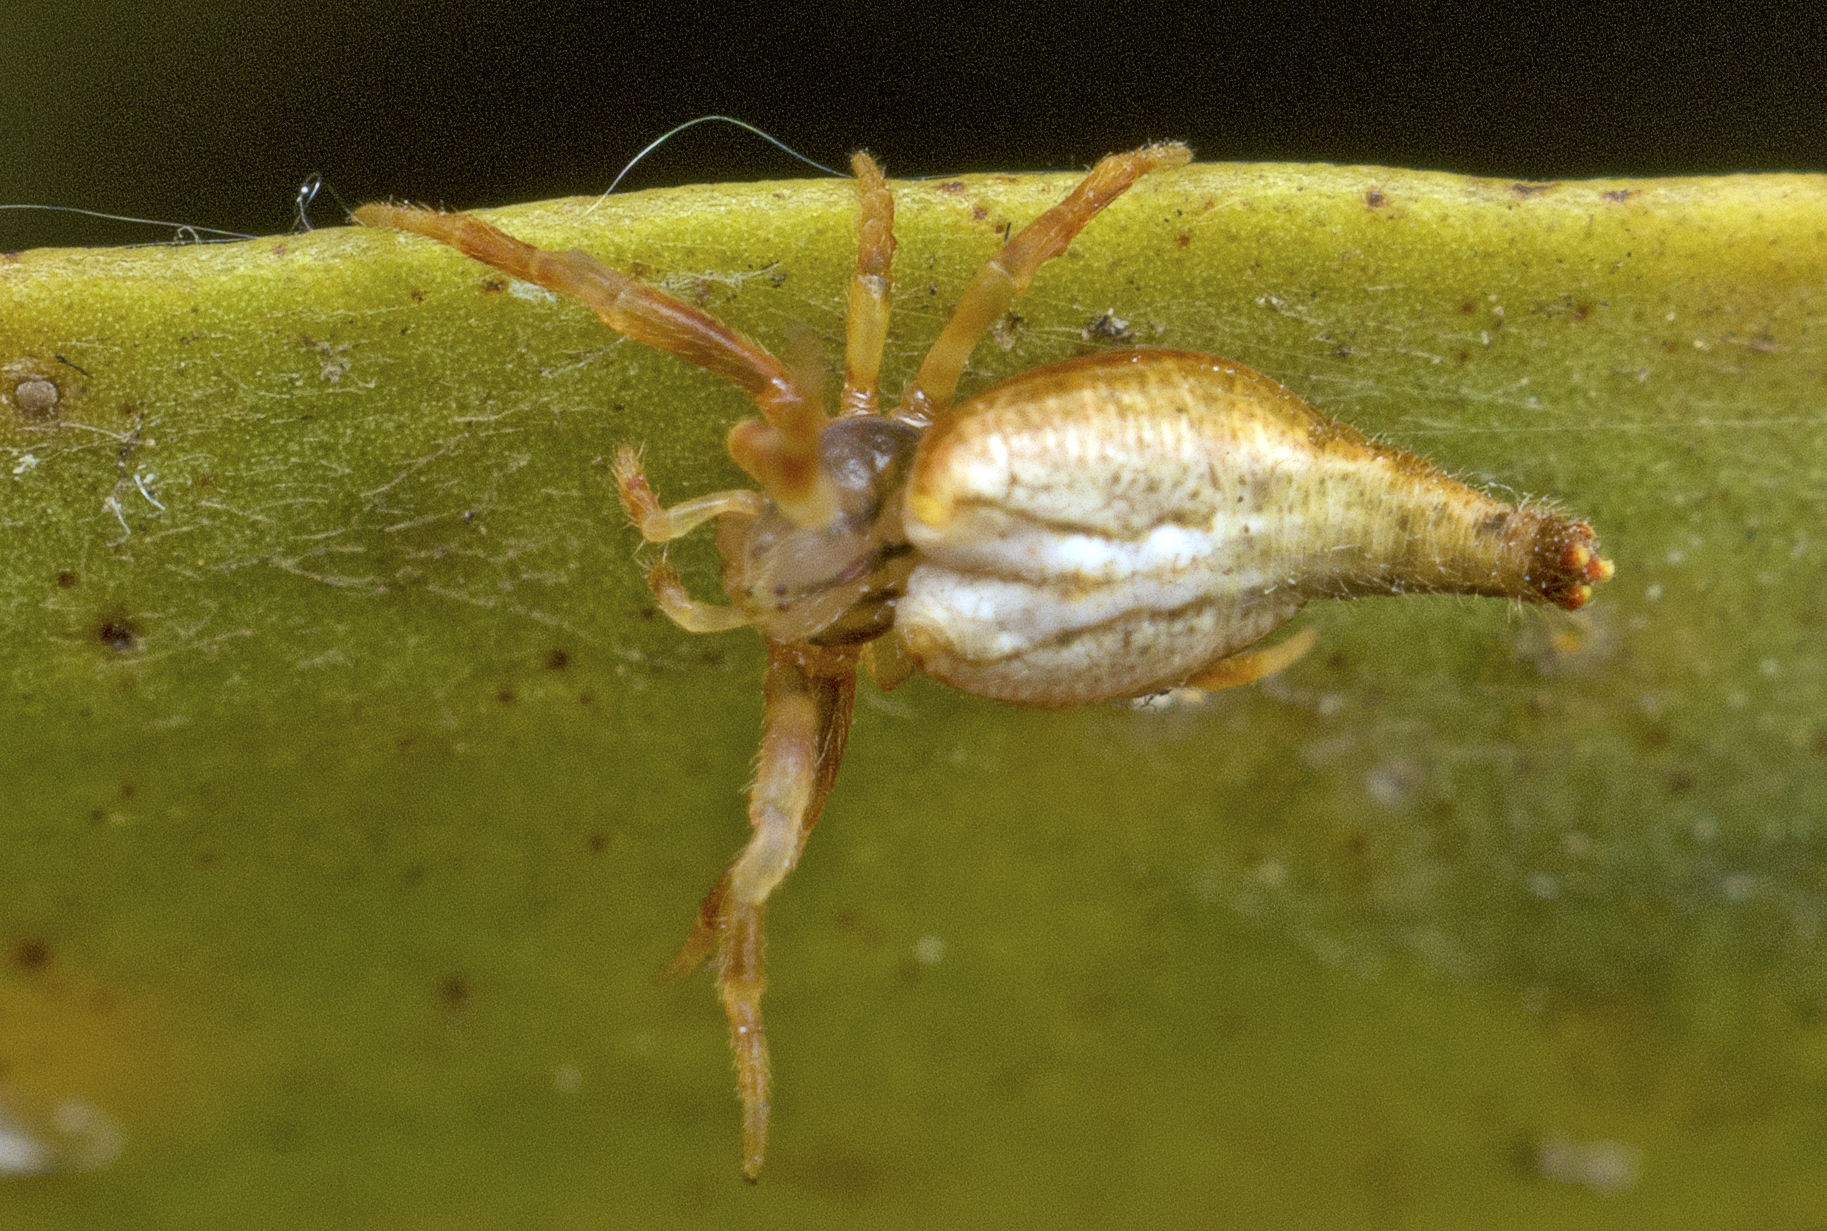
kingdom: Animalia
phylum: Arthropoda
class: Arachnida
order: Araneae
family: Araneidae
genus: Arachnura
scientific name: Arachnura higginsi
